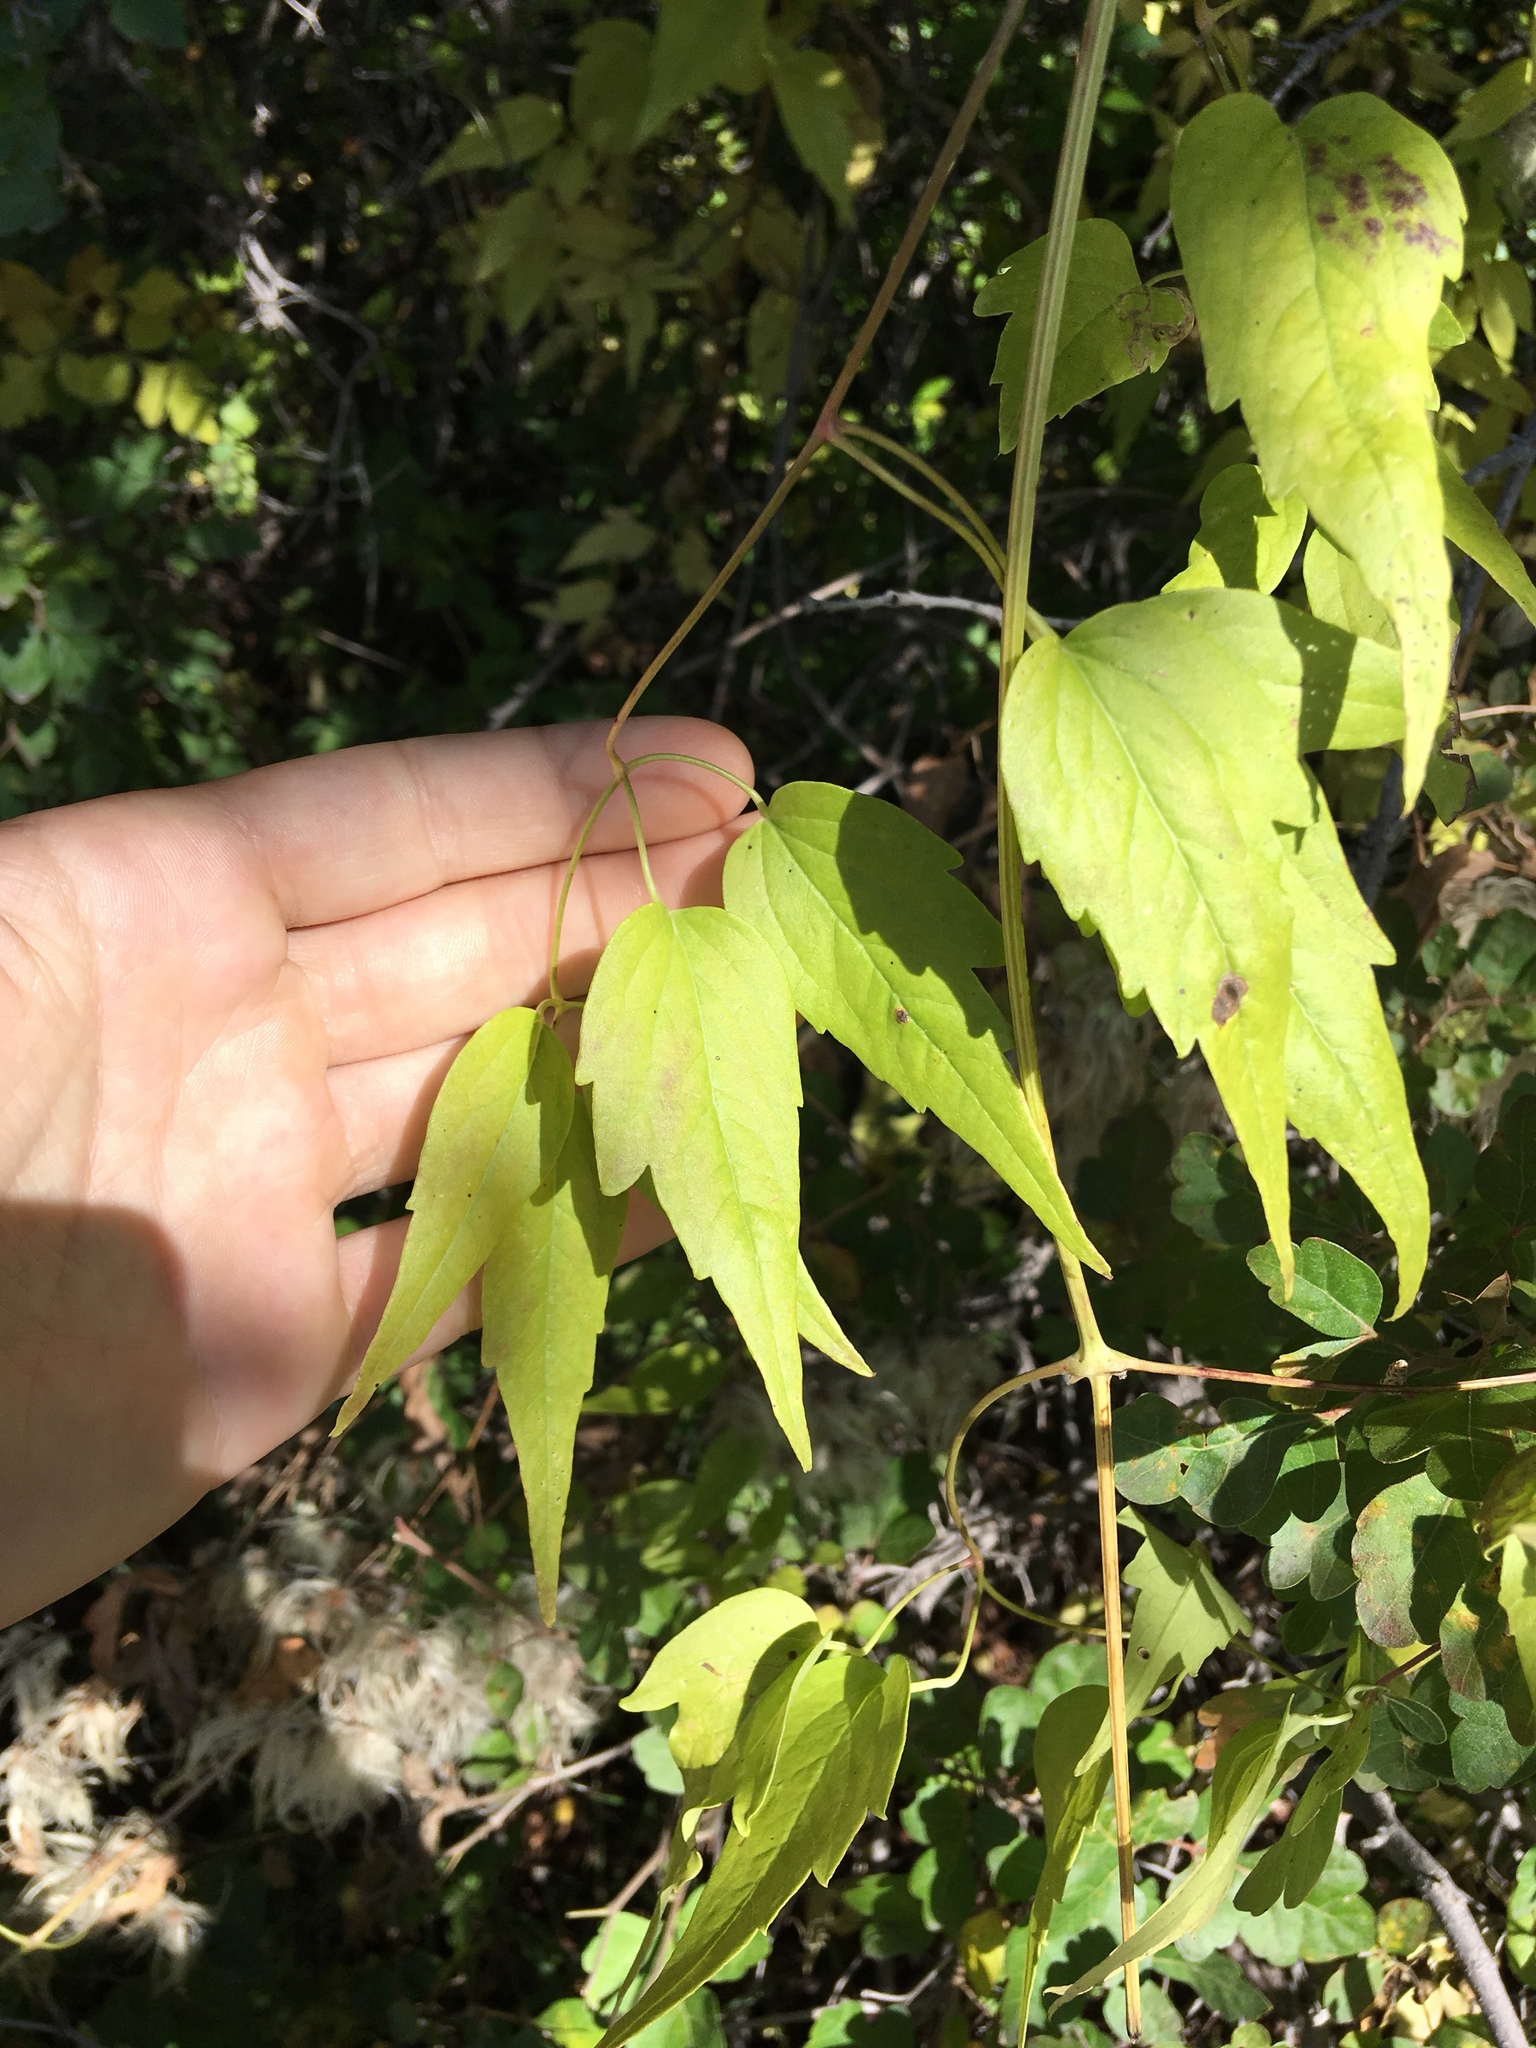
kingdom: Plantae
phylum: Tracheophyta
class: Magnoliopsida
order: Ranunculales
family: Ranunculaceae
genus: Clematis
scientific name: Clematis ligusticifolia
